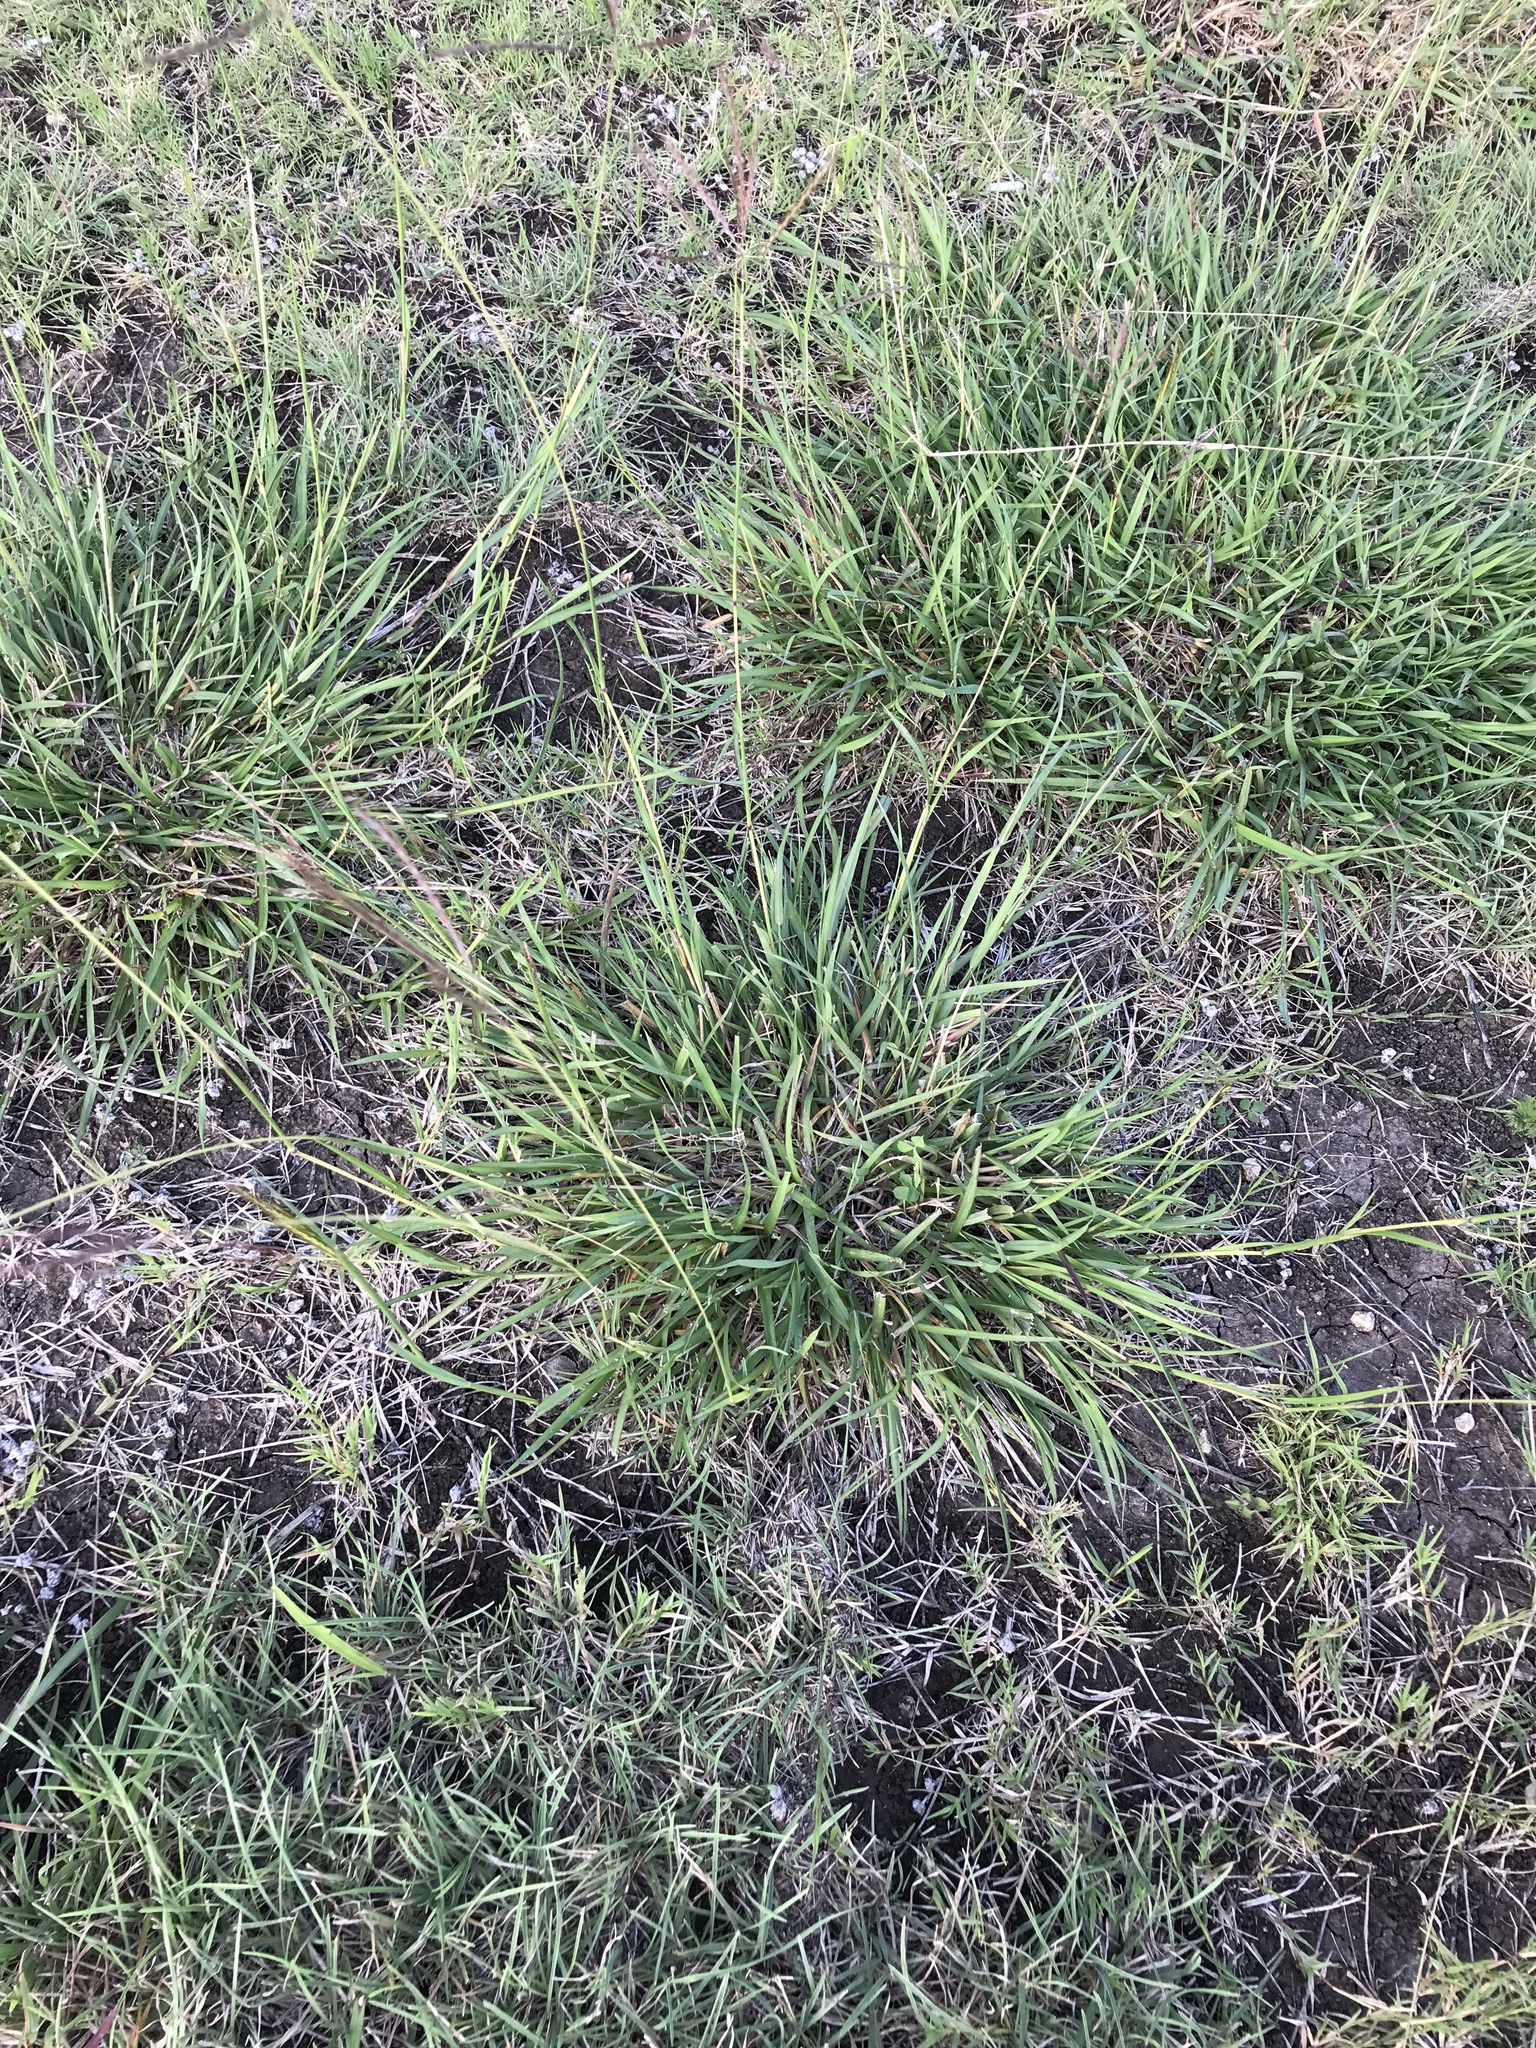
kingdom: Plantae
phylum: Tracheophyta
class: Liliopsida
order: Poales
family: Poaceae
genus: Bothriochloa
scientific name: Bothriochloa ischaemum
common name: Yellow bluestem
